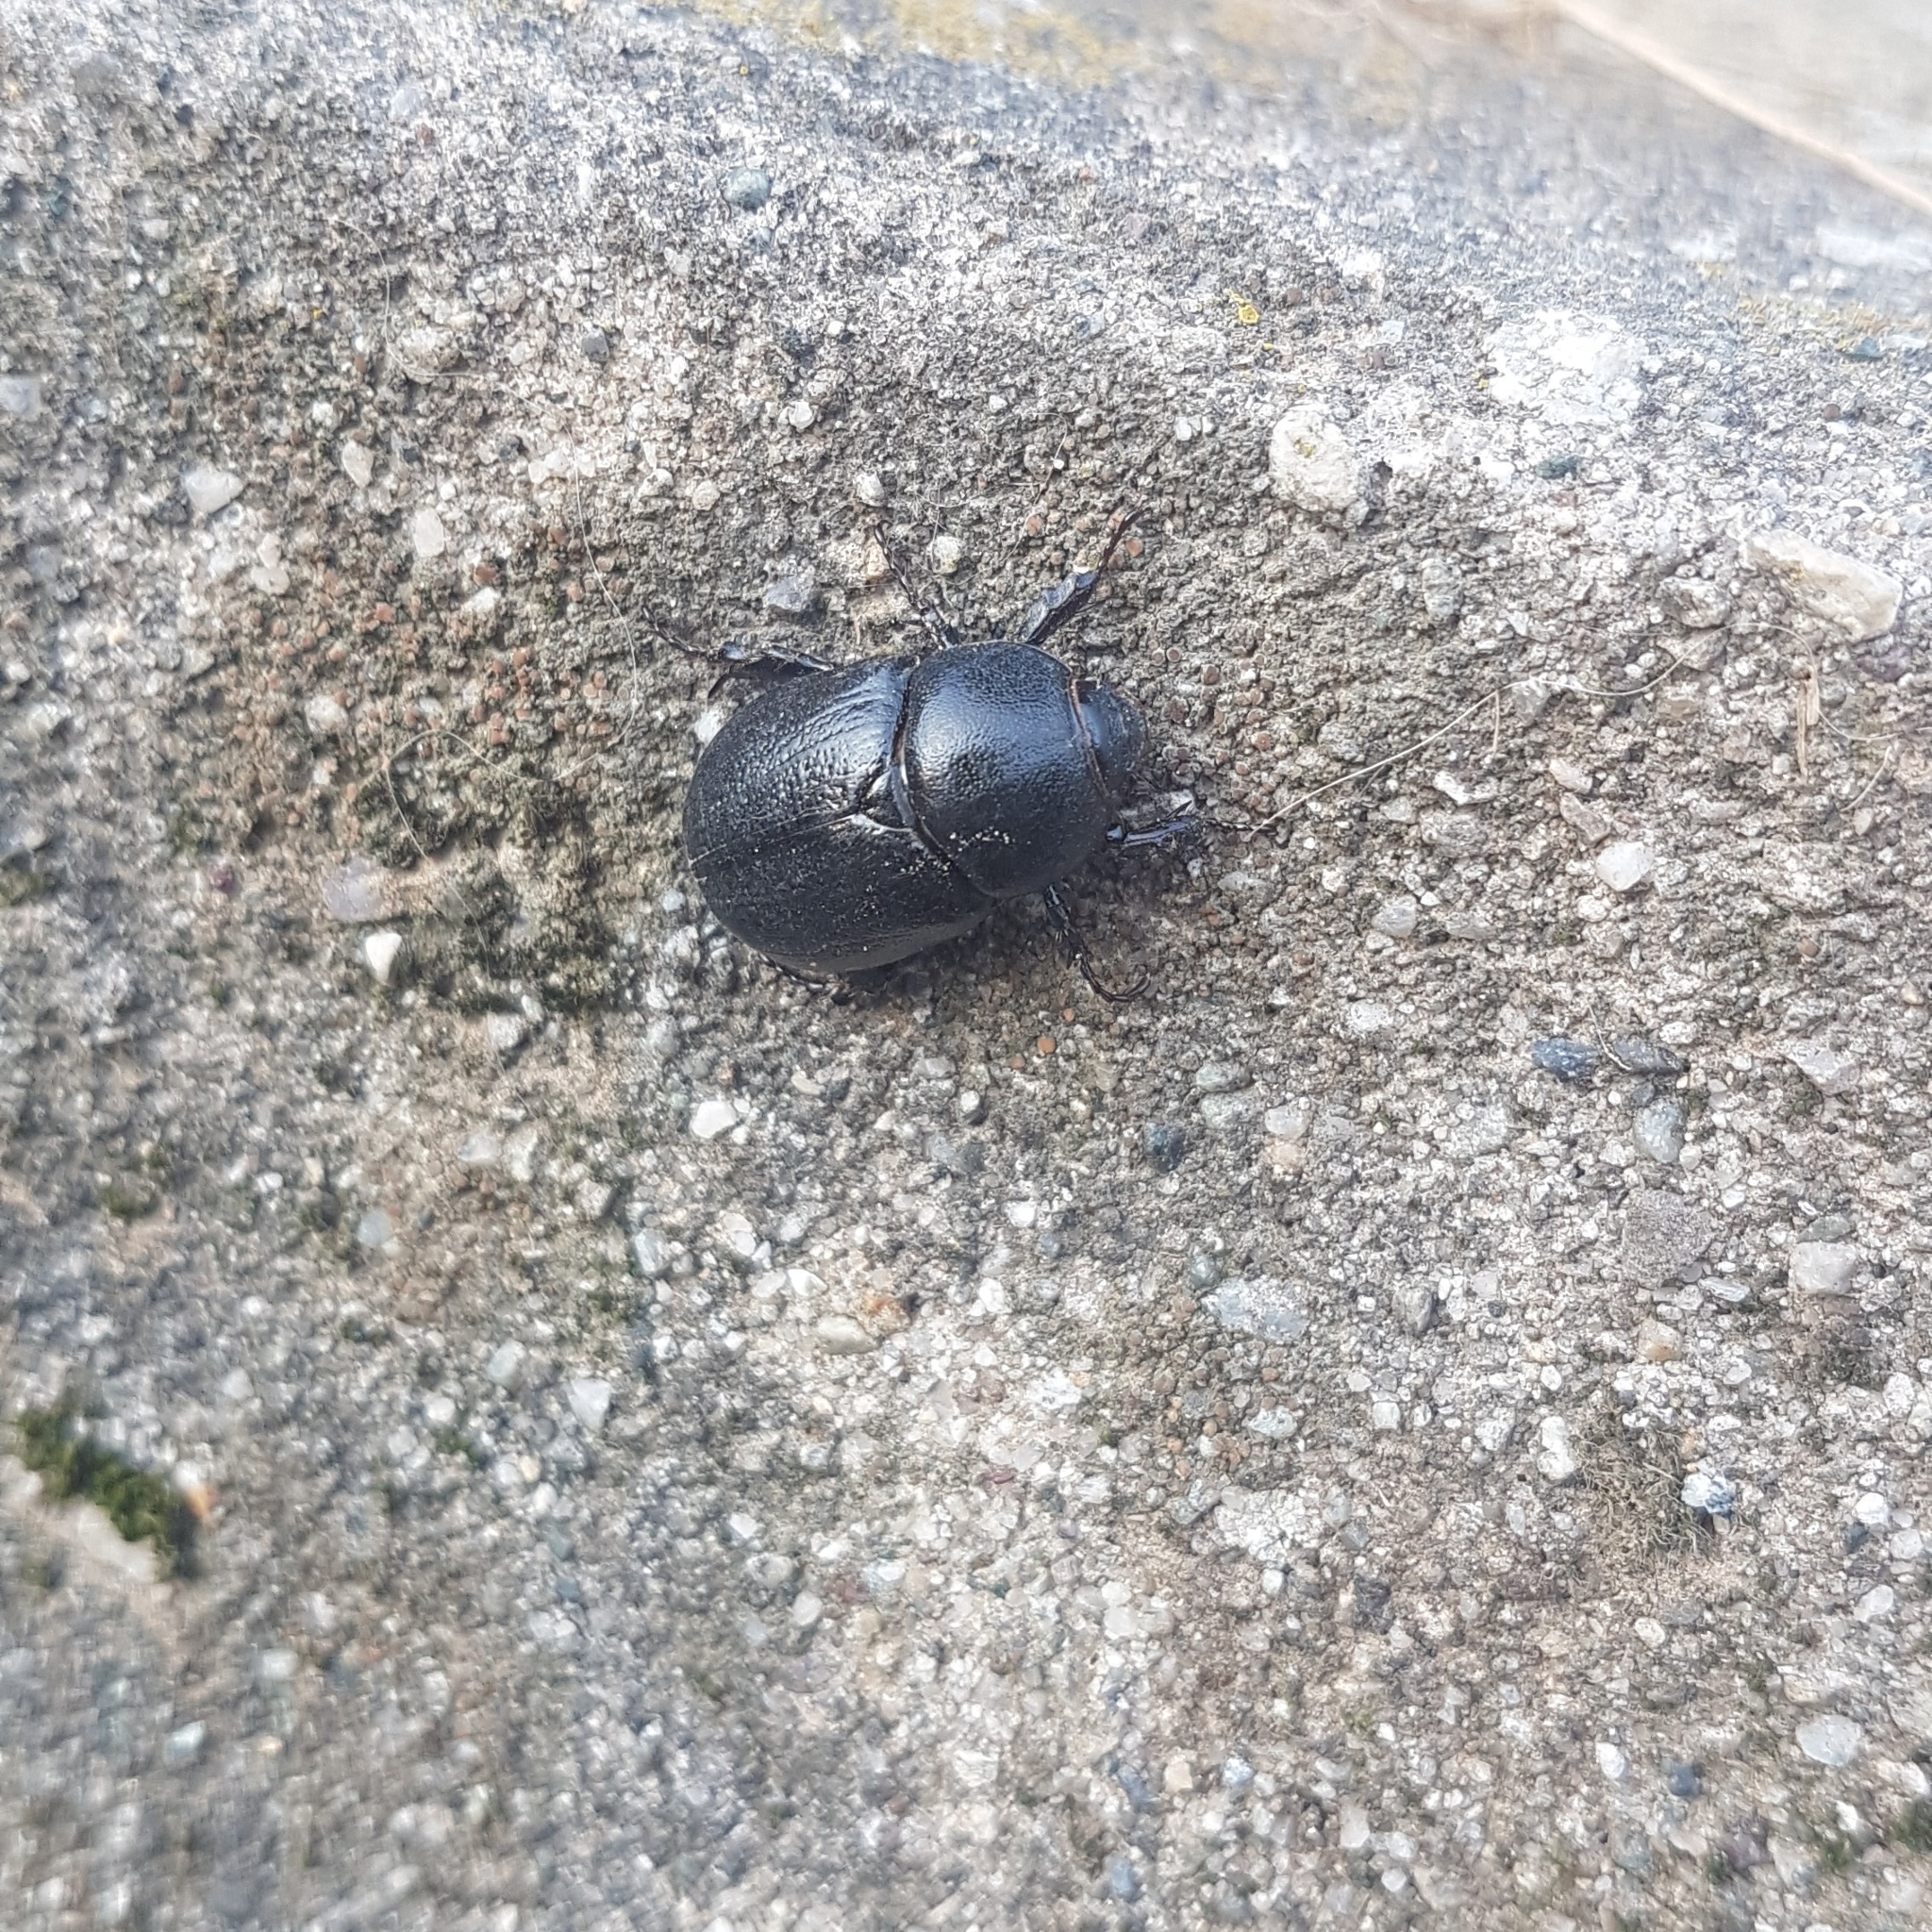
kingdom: Animalia
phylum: Arthropoda
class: Insecta
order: Coleoptera
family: Scarabaeidae
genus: Pentodon
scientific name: Pentodon bidens
